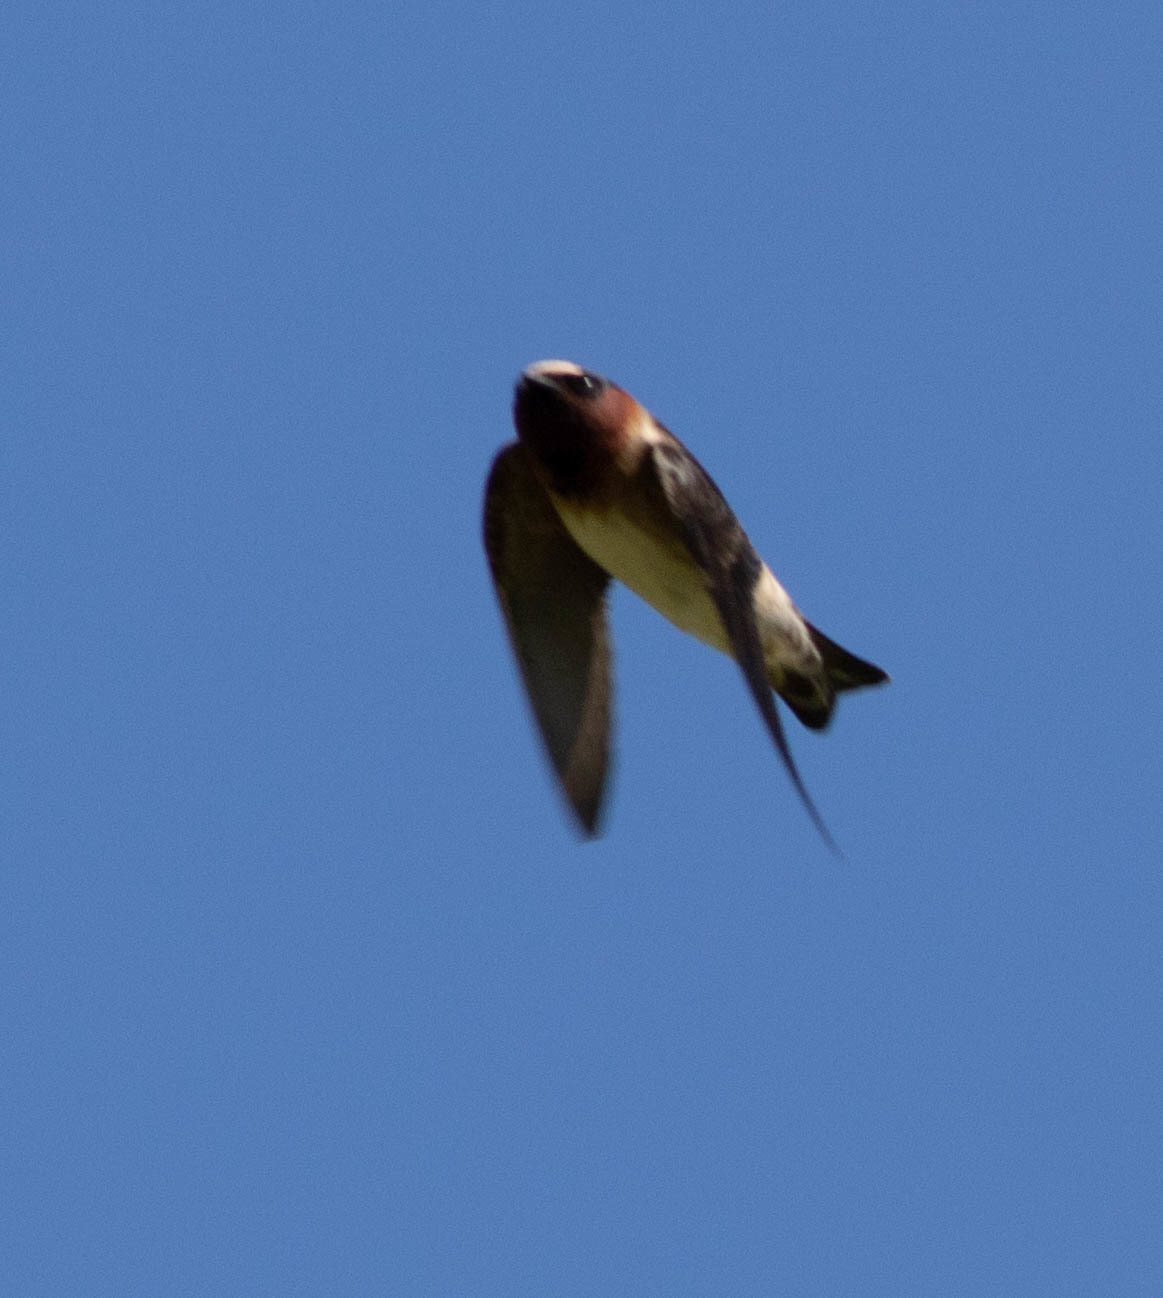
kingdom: Animalia
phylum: Chordata
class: Aves
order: Passeriformes
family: Hirundinidae
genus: Petrochelidon
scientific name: Petrochelidon pyrrhonota
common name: American cliff swallow
